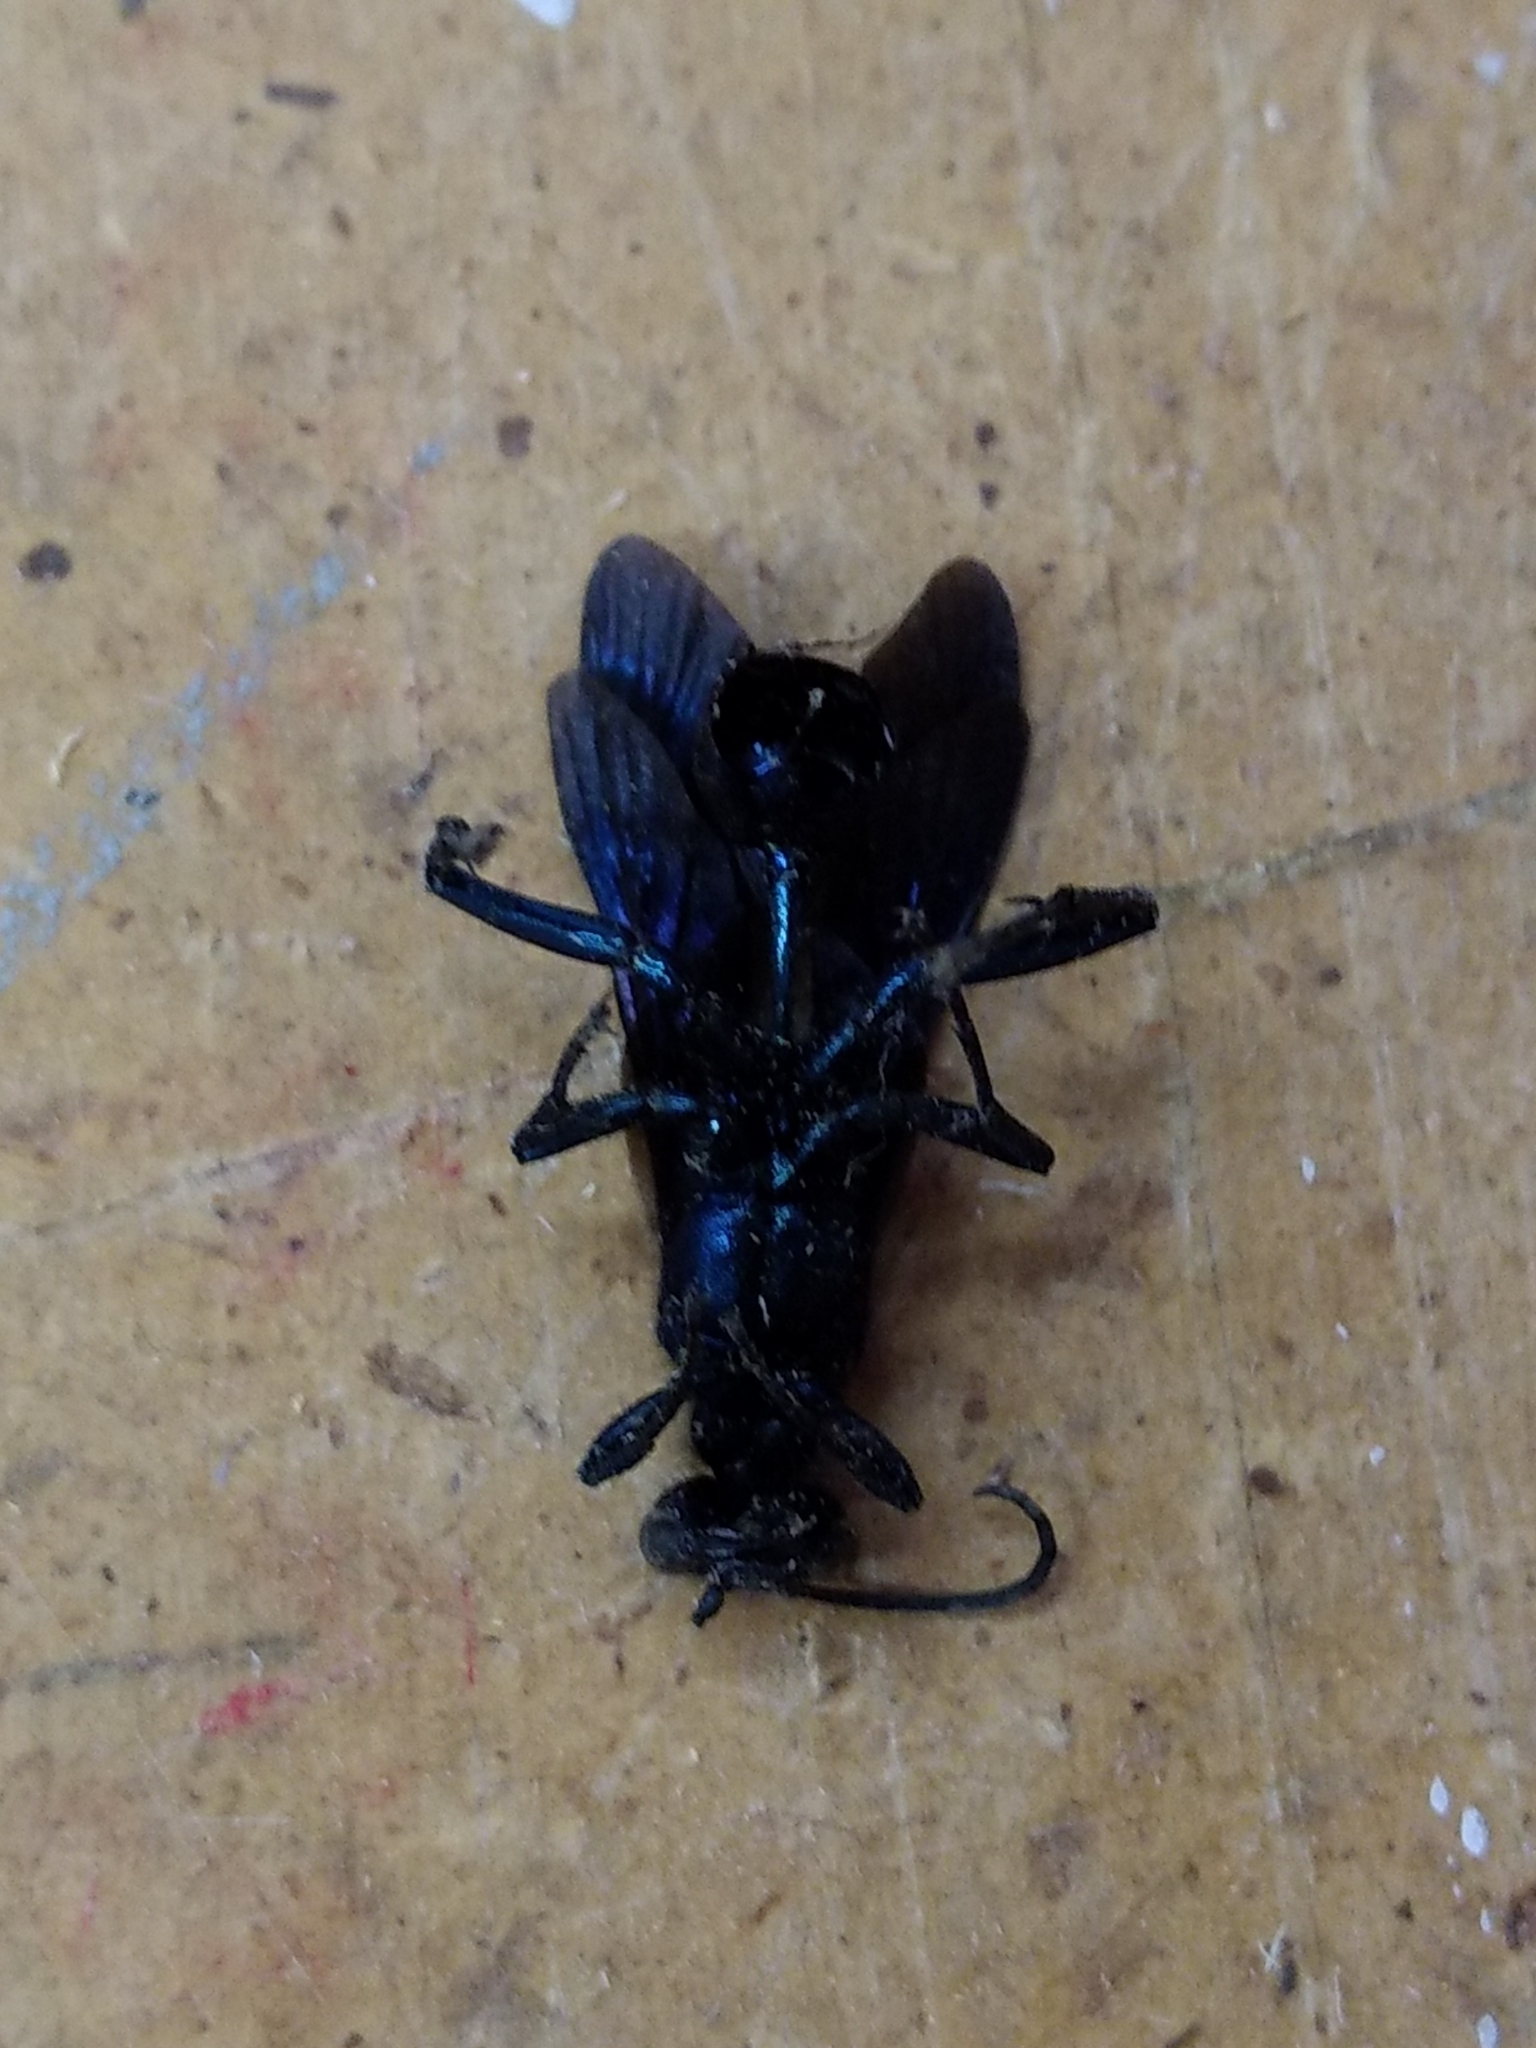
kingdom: Animalia
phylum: Arthropoda
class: Insecta
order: Hymenoptera
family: Sphecidae
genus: Chalybion
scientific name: Chalybion californicum
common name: Mud dauber
